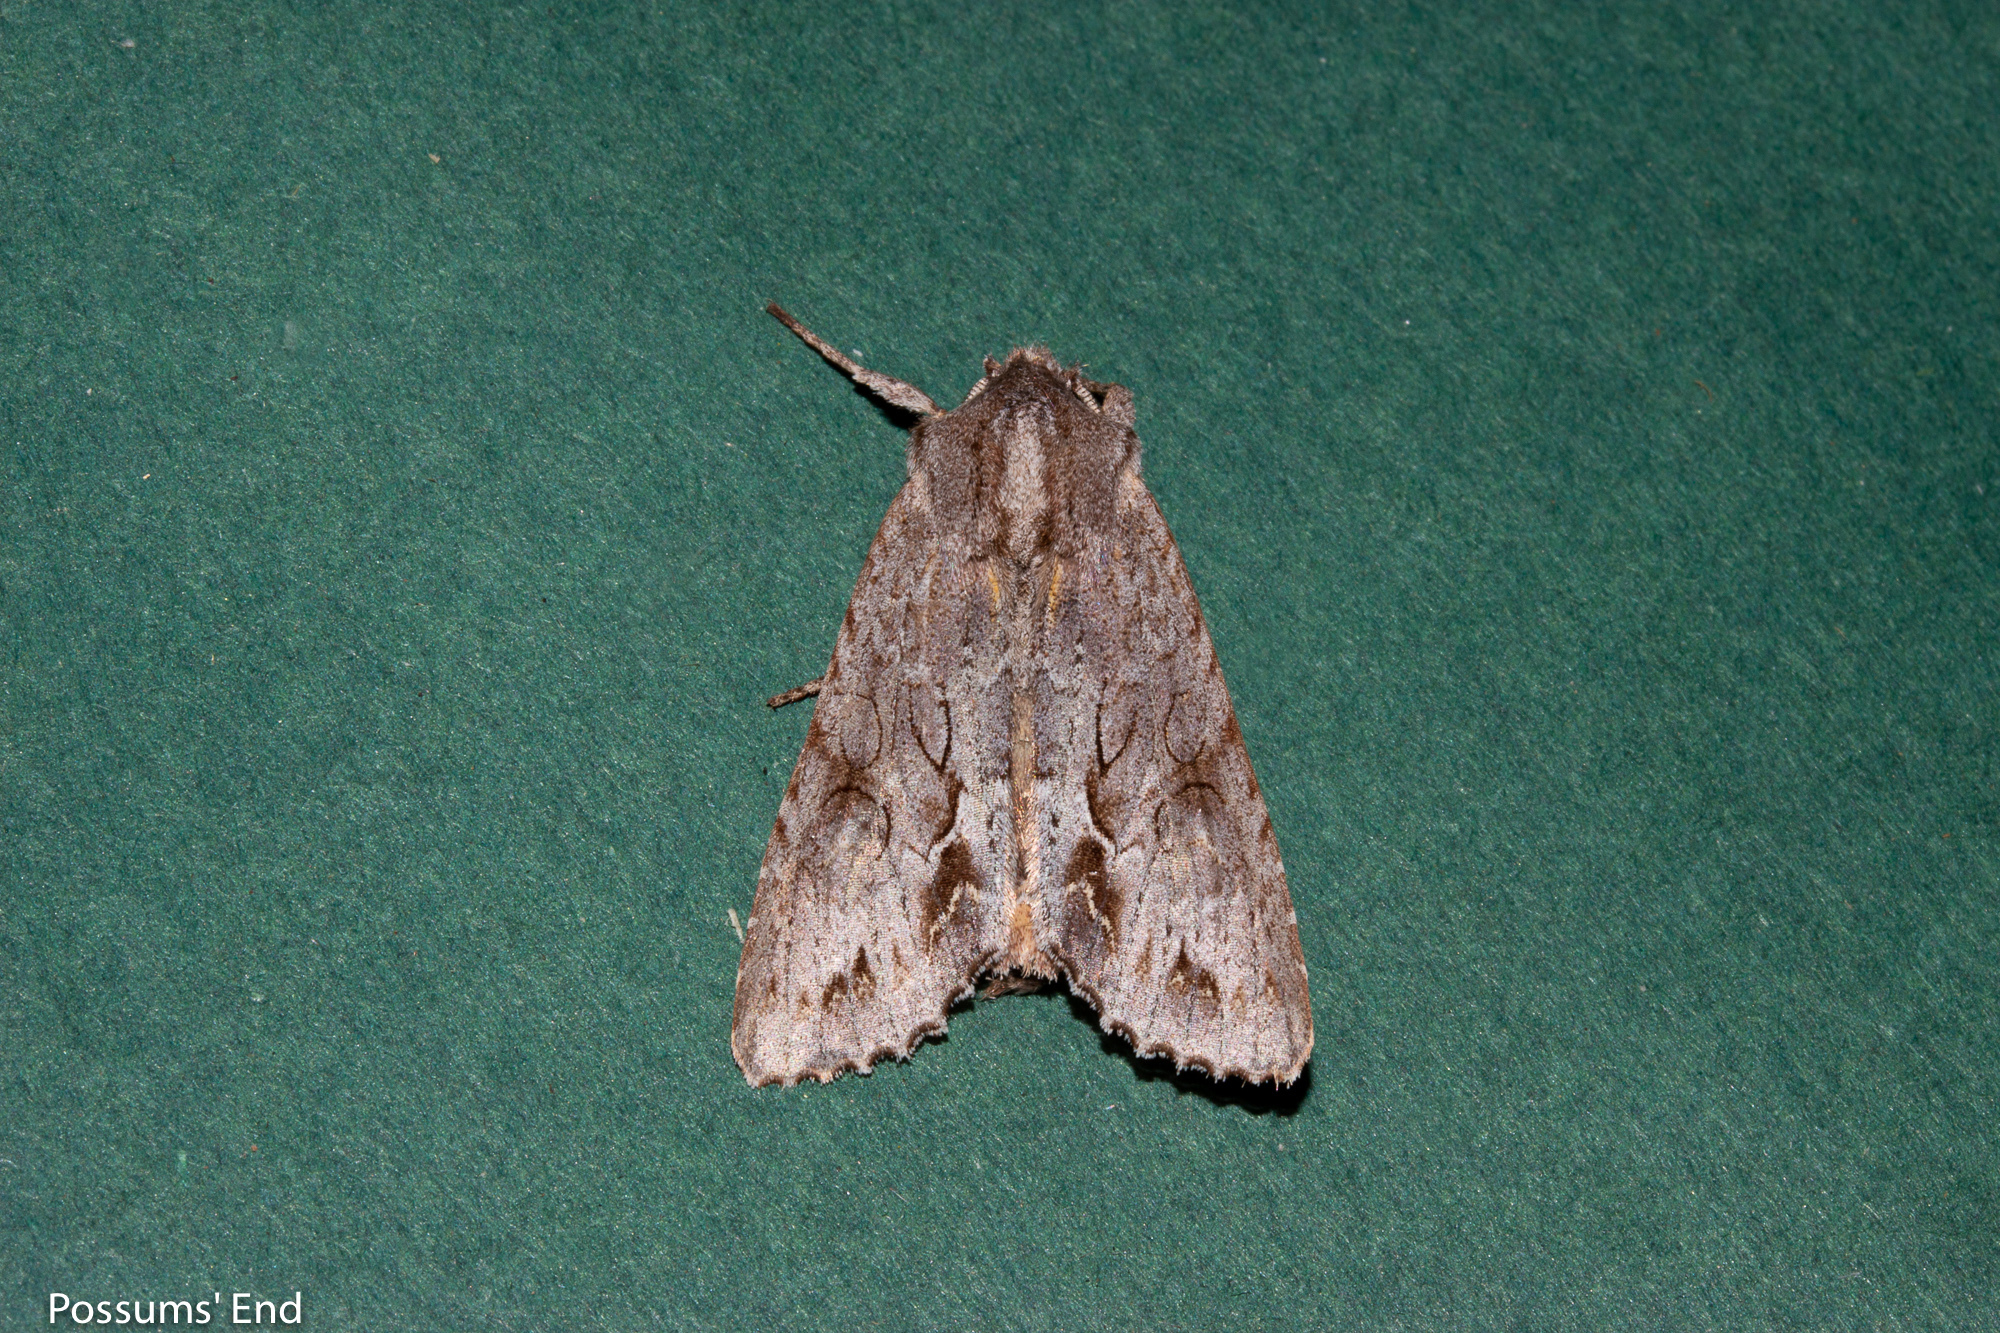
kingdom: Animalia
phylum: Arthropoda
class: Insecta
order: Lepidoptera
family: Noctuidae
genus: Ichneutica
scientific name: Ichneutica
